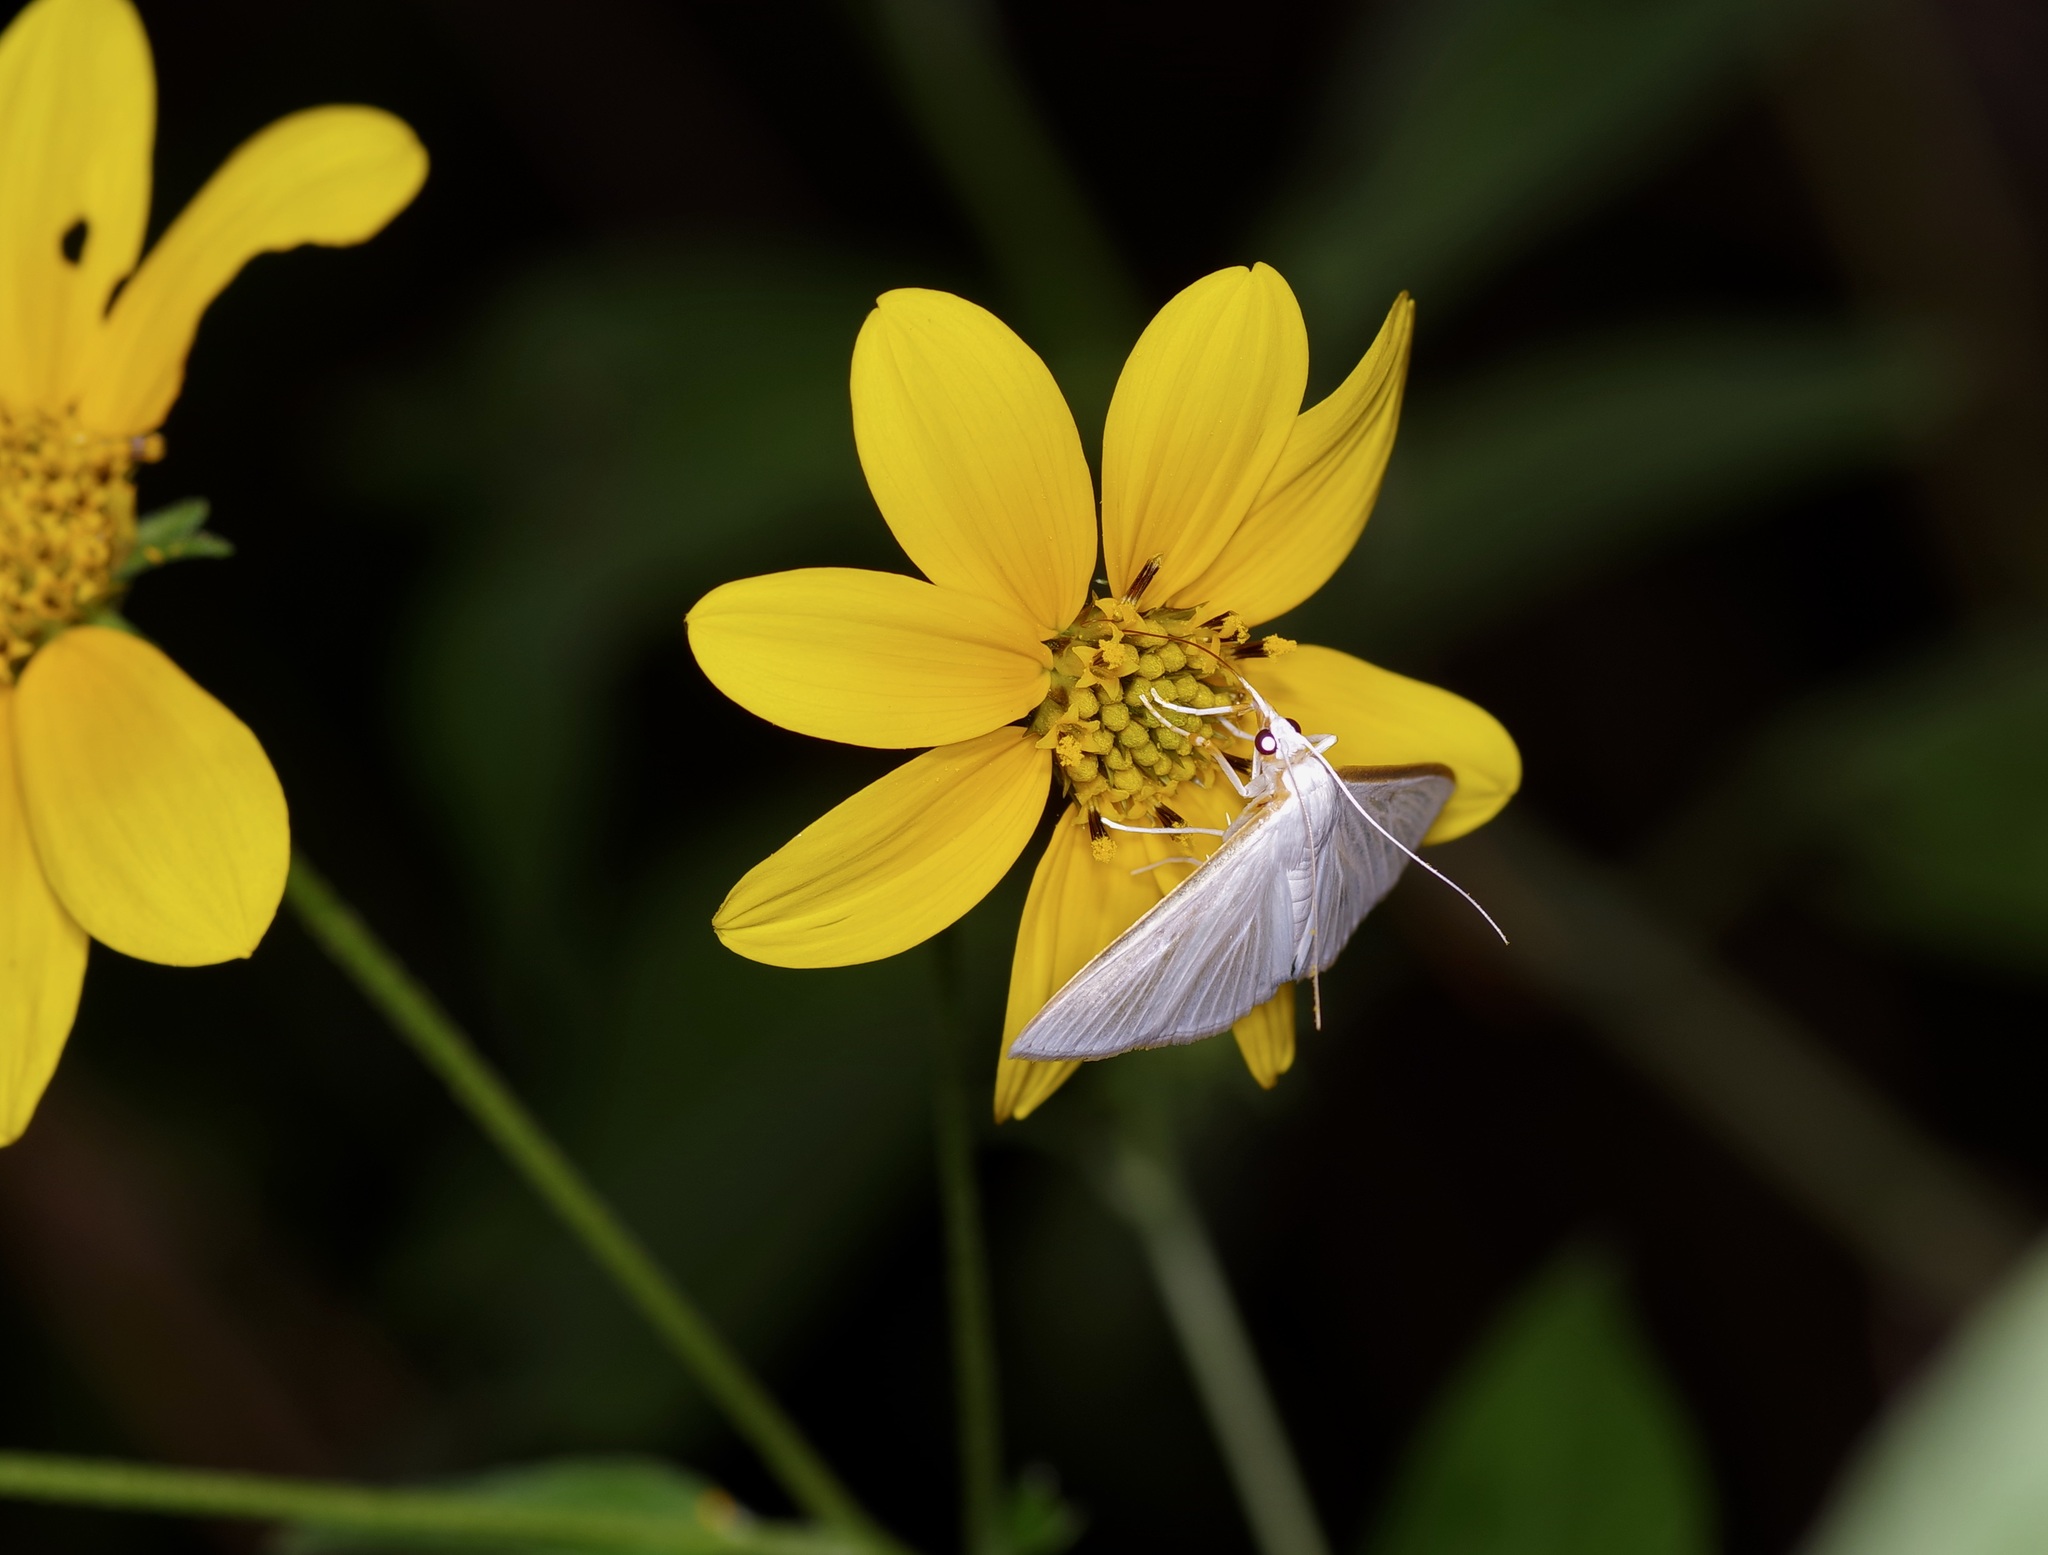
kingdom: Animalia
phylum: Arthropoda
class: Insecta
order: Lepidoptera
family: Crambidae
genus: Palpita
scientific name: Palpita quadristigmalis
